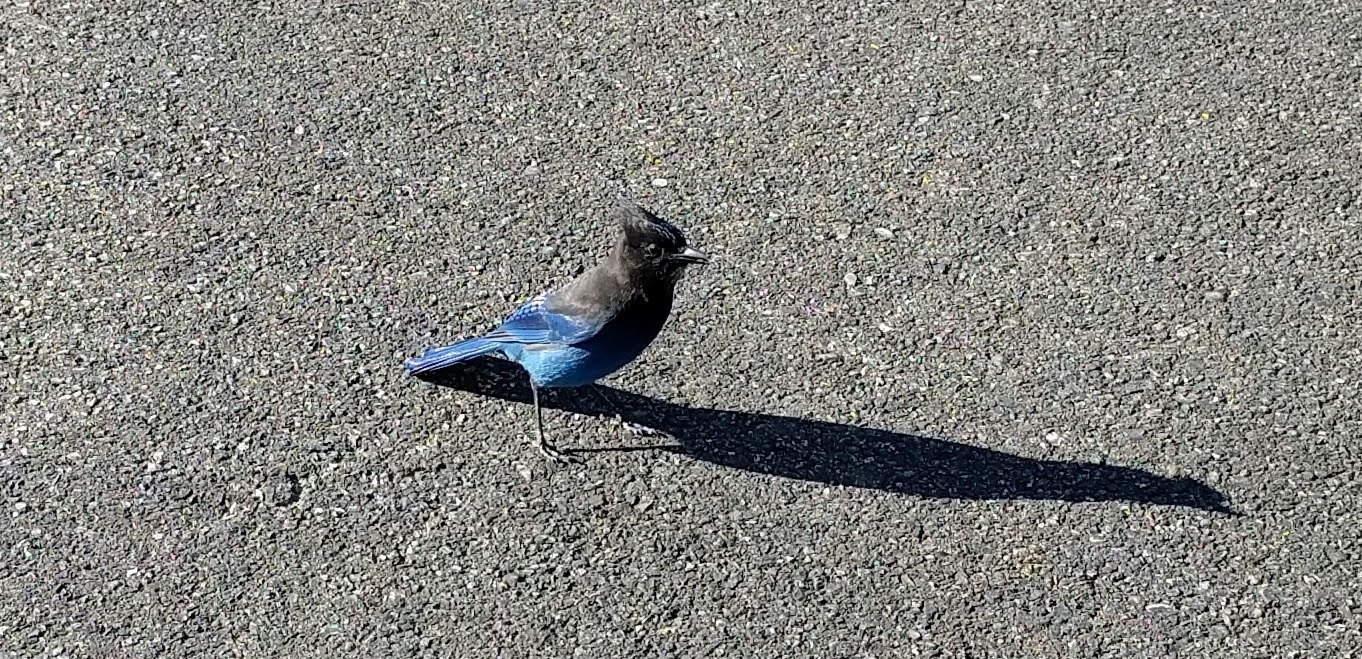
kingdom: Animalia
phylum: Chordata
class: Aves
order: Passeriformes
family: Corvidae
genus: Cyanocitta
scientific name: Cyanocitta stelleri
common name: Steller's jay
